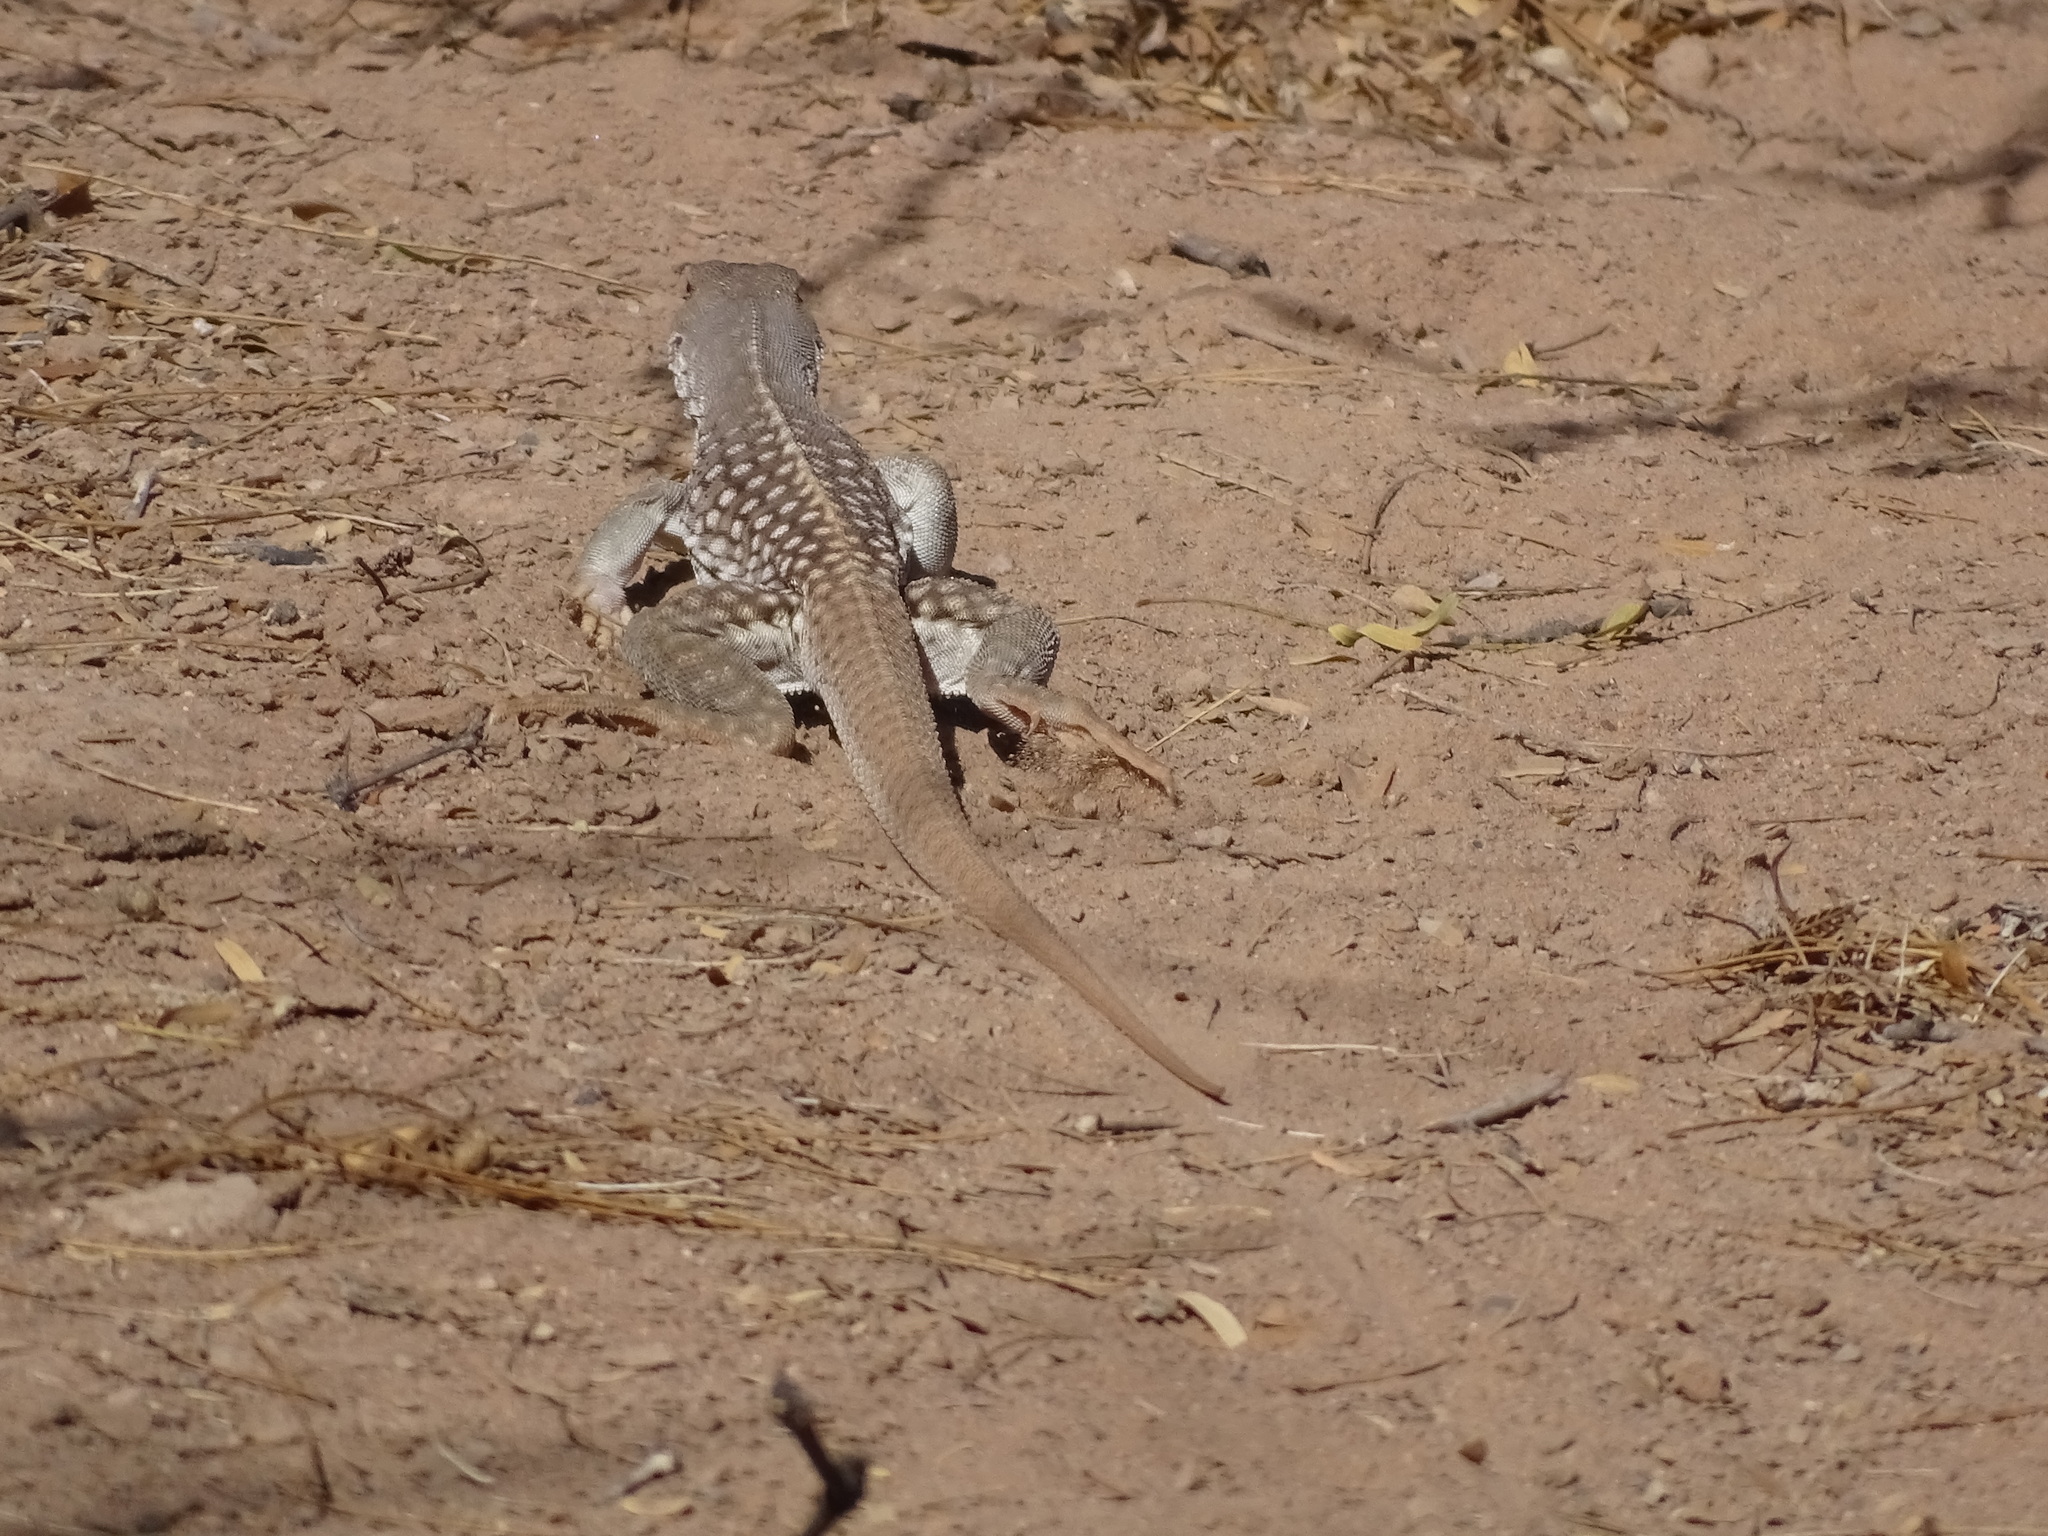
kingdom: Animalia
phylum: Chordata
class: Squamata
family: Iguanidae
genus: Dipsosaurus
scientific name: Dipsosaurus dorsalis
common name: Desert iguana
